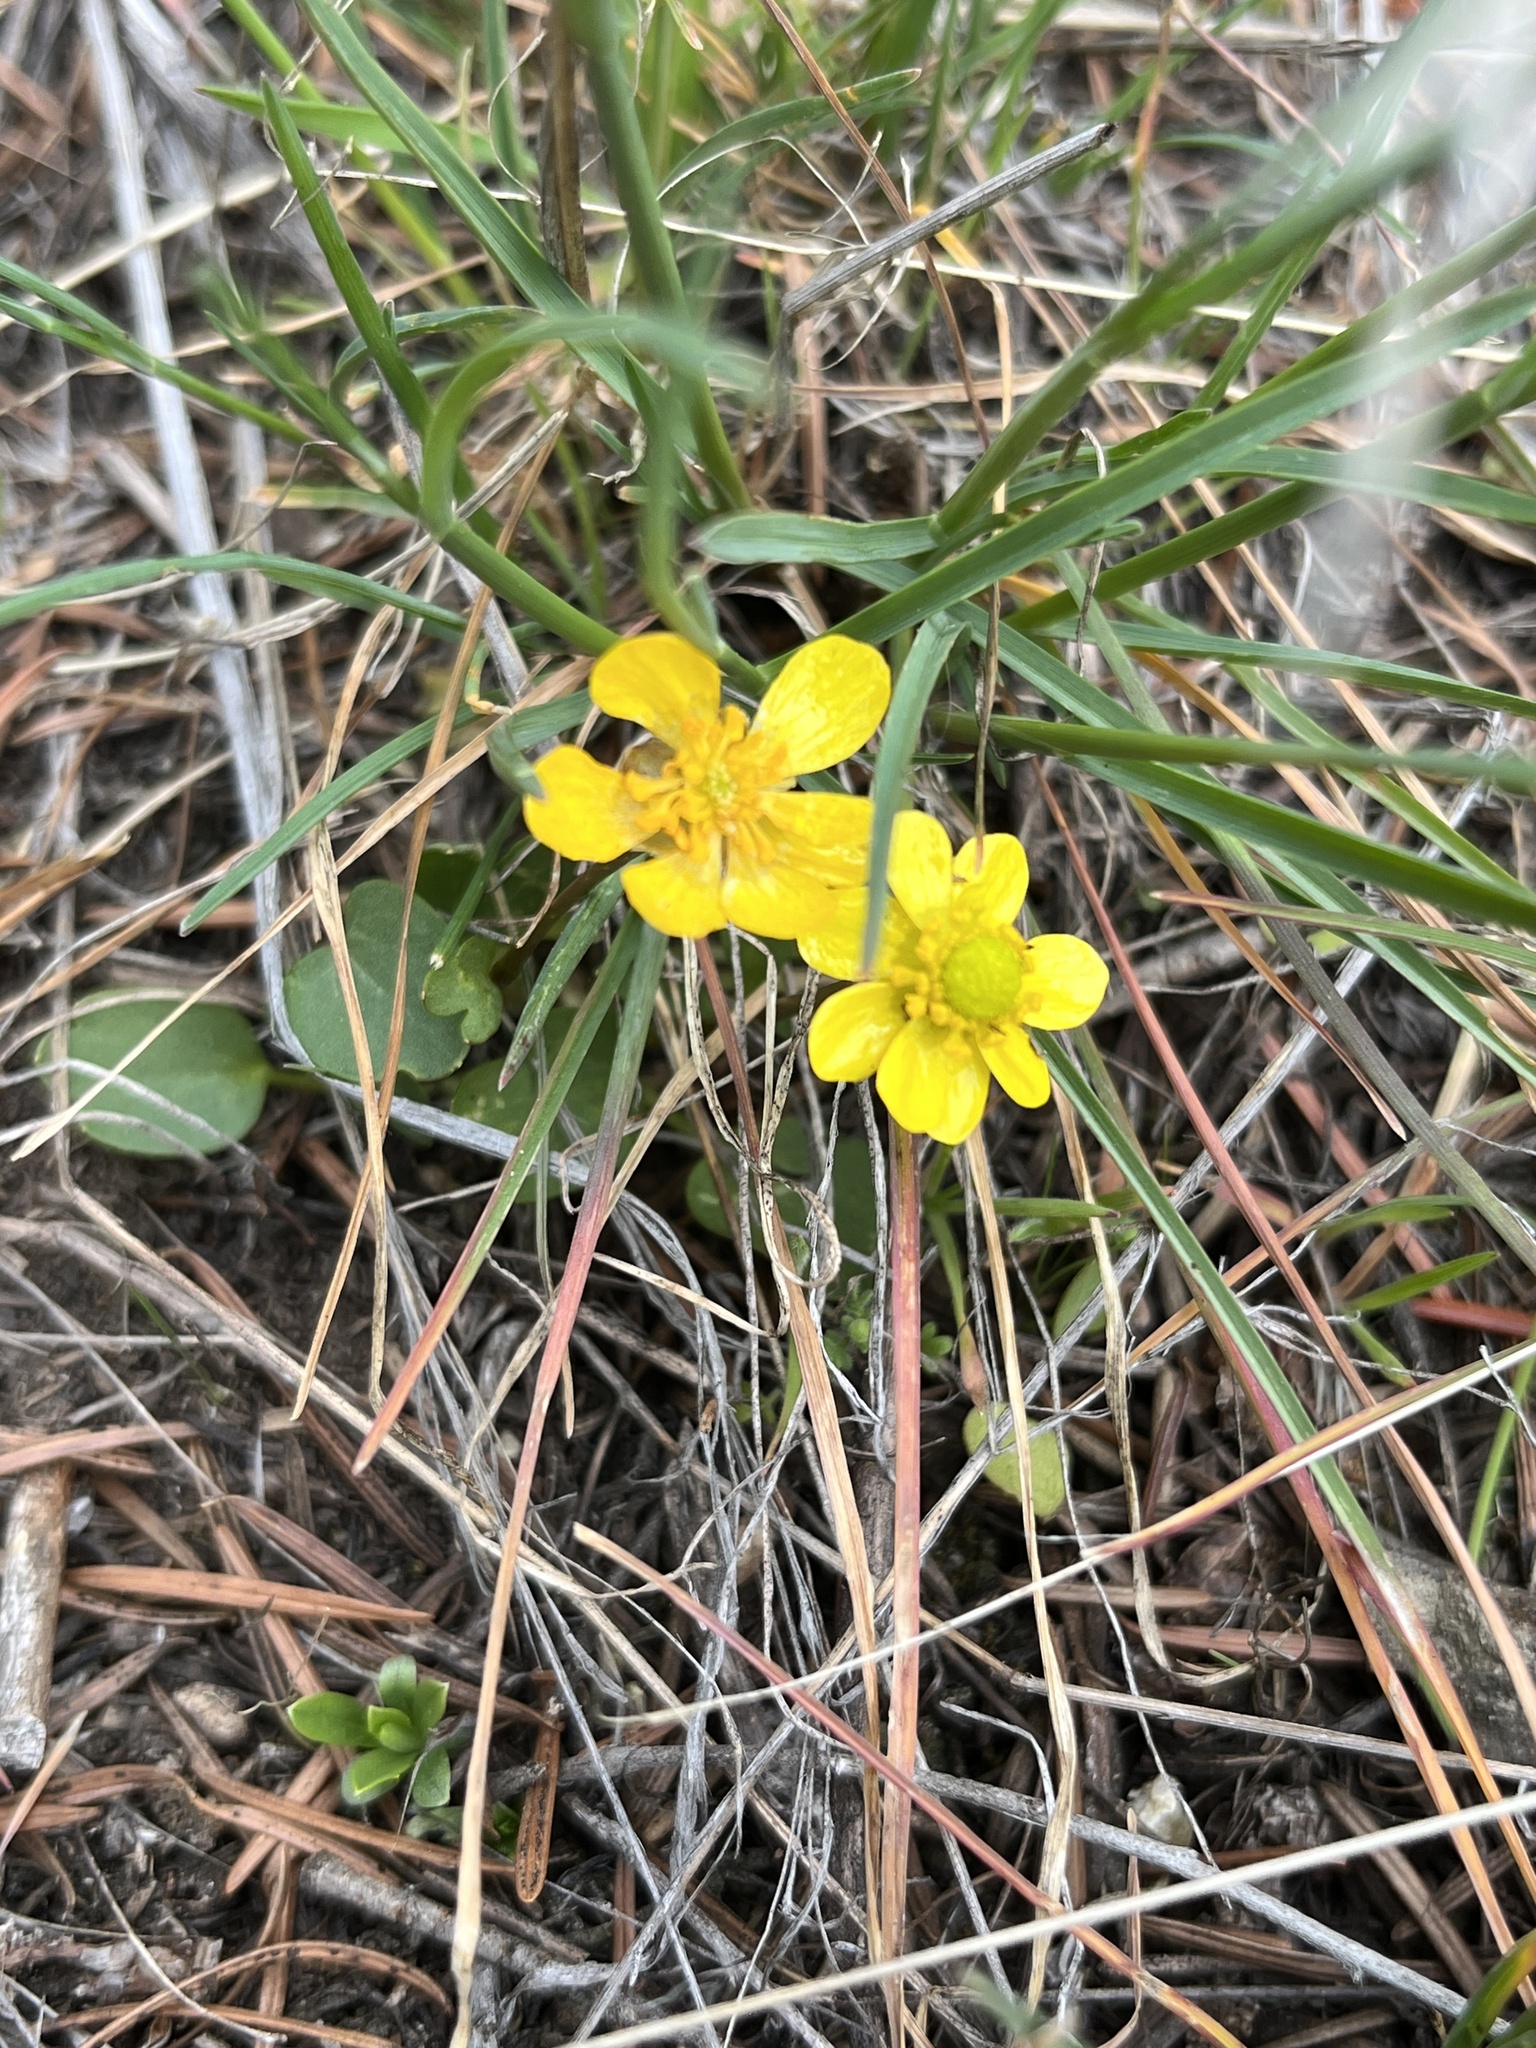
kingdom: Plantae
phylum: Tracheophyta
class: Magnoliopsida
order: Ranunculales
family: Ranunculaceae
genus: Ranunculus
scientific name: Ranunculus glaberrimus
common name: Sagebrush buttercup
